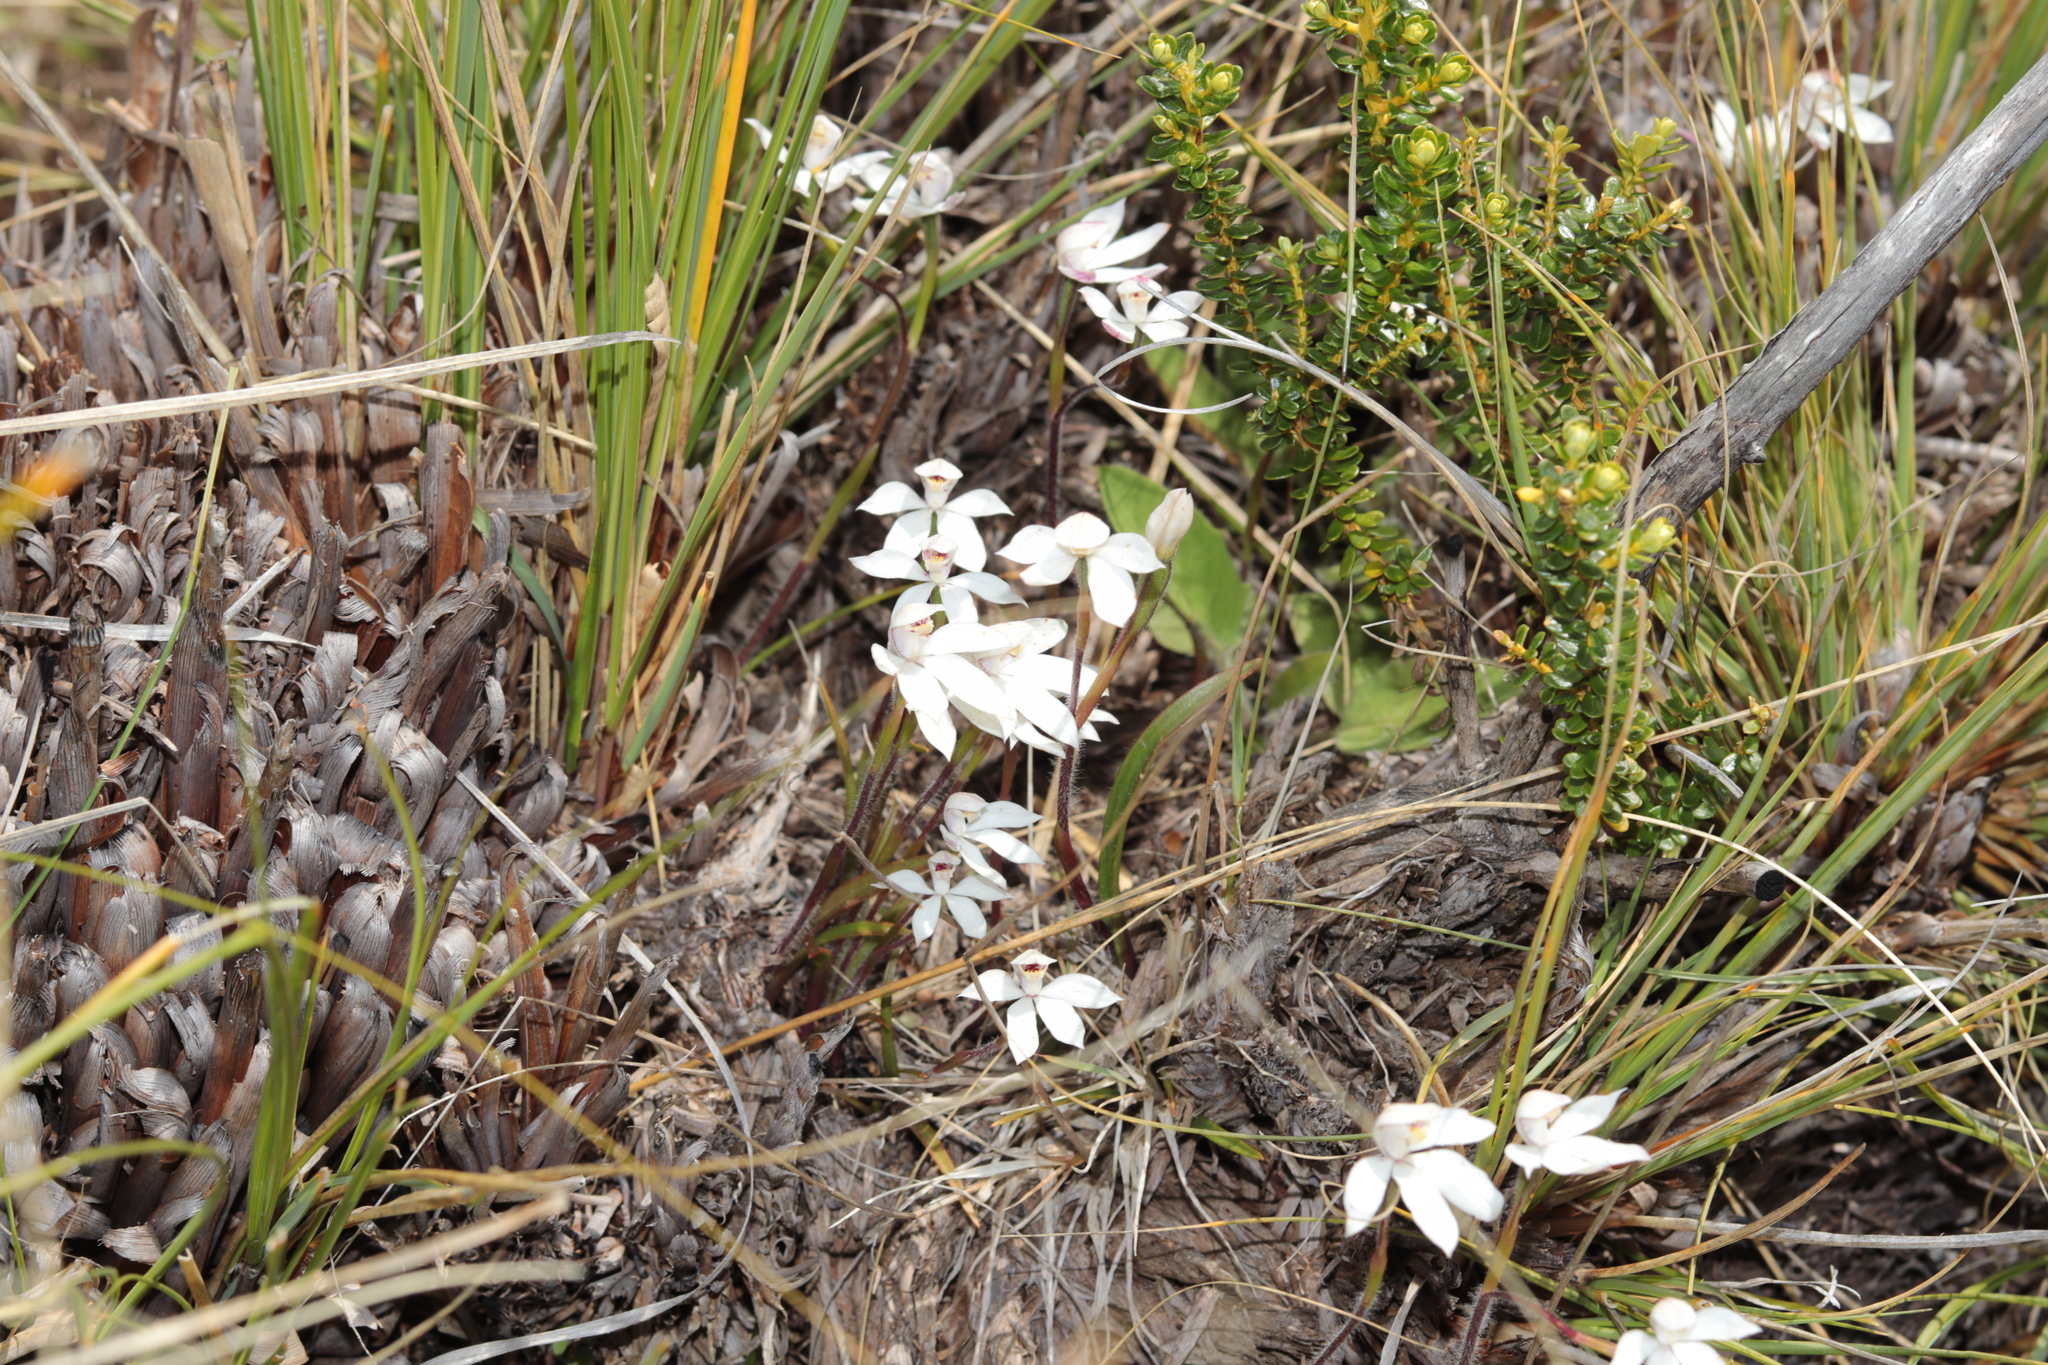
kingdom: Plantae
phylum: Tracheophyta
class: Liliopsida
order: Asparagales
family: Orchidaceae
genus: Caladenia
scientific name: Caladenia lyallii
